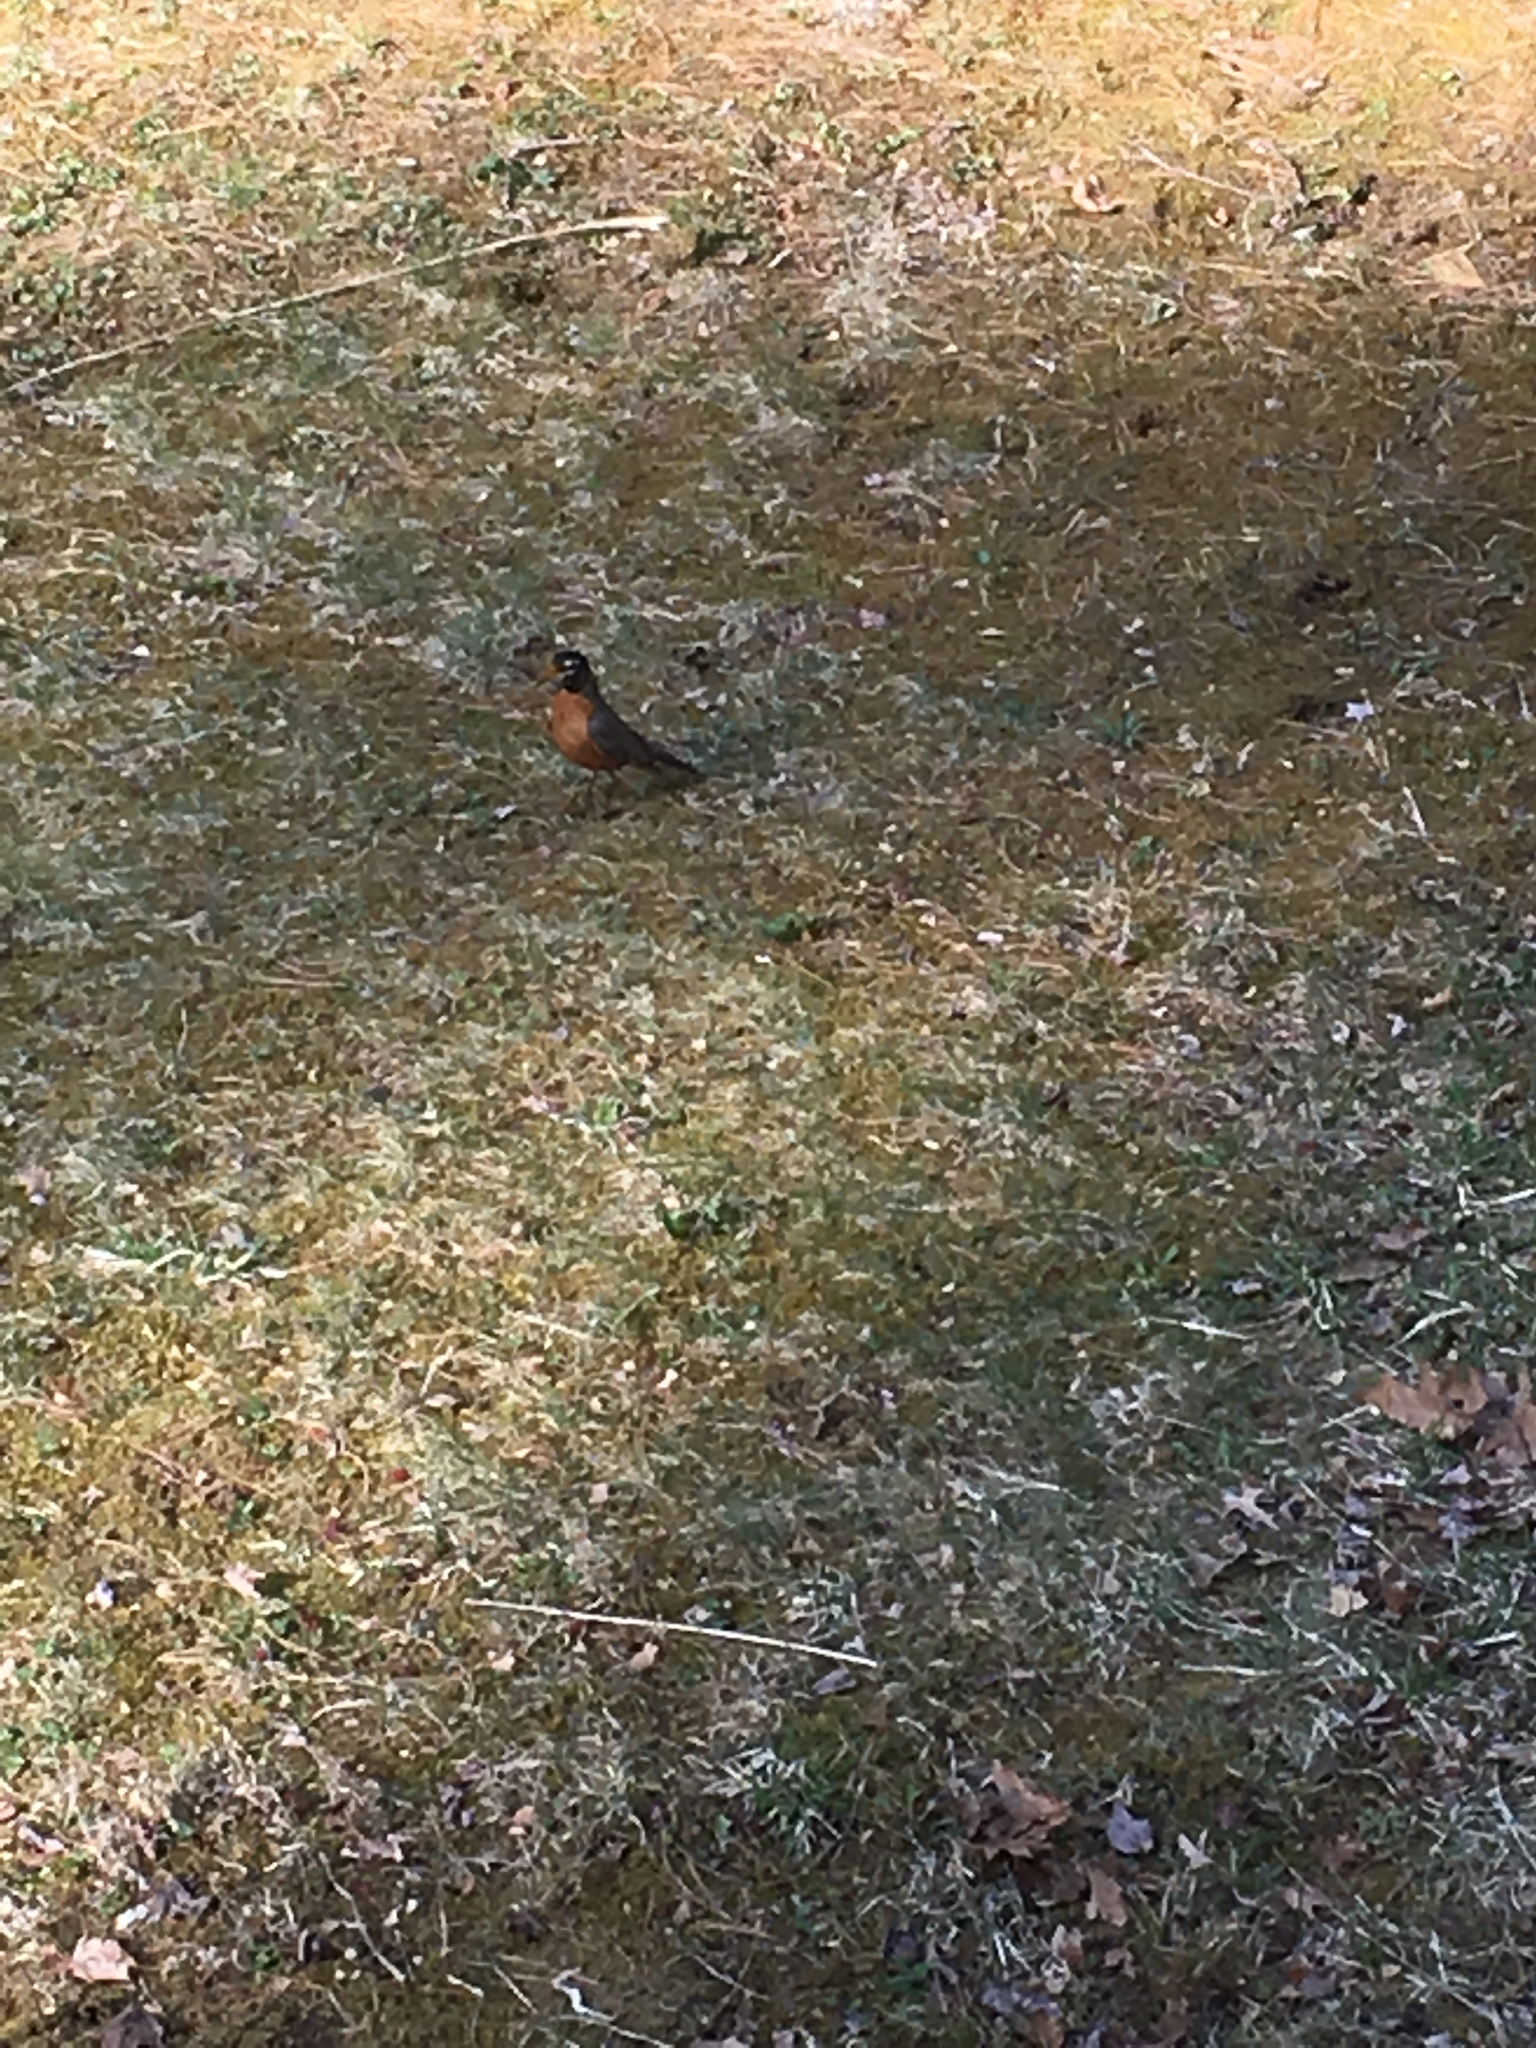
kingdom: Animalia
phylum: Chordata
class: Aves
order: Passeriformes
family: Turdidae
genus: Turdus
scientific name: Turdus migratorius
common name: American robin
